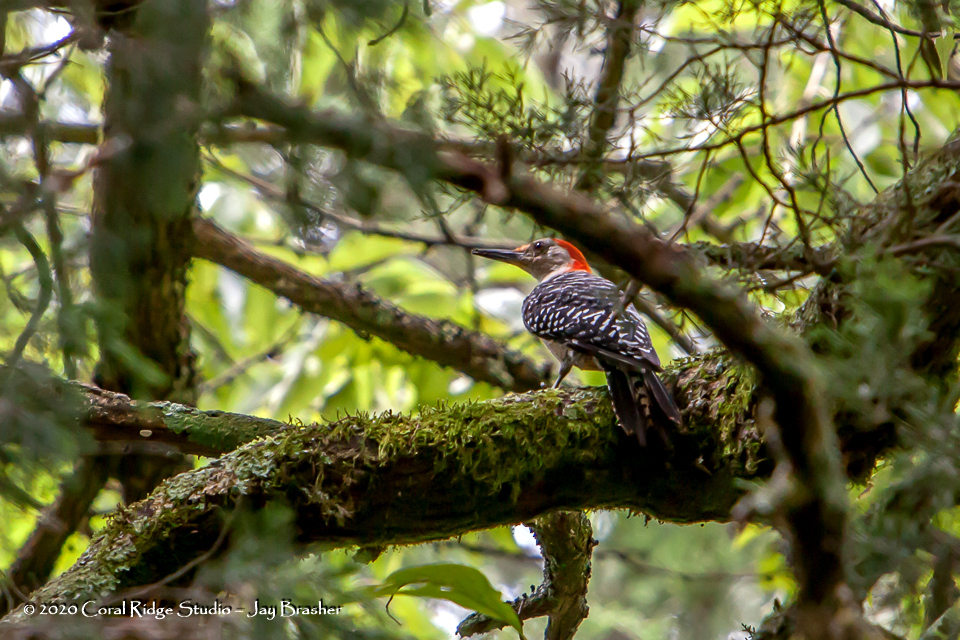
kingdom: Animalia
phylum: Chordata
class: Aves
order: Piciformes
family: Picidae
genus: Melanerpes
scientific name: Melanerpes carolinus
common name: Red-bellied woodpecker
